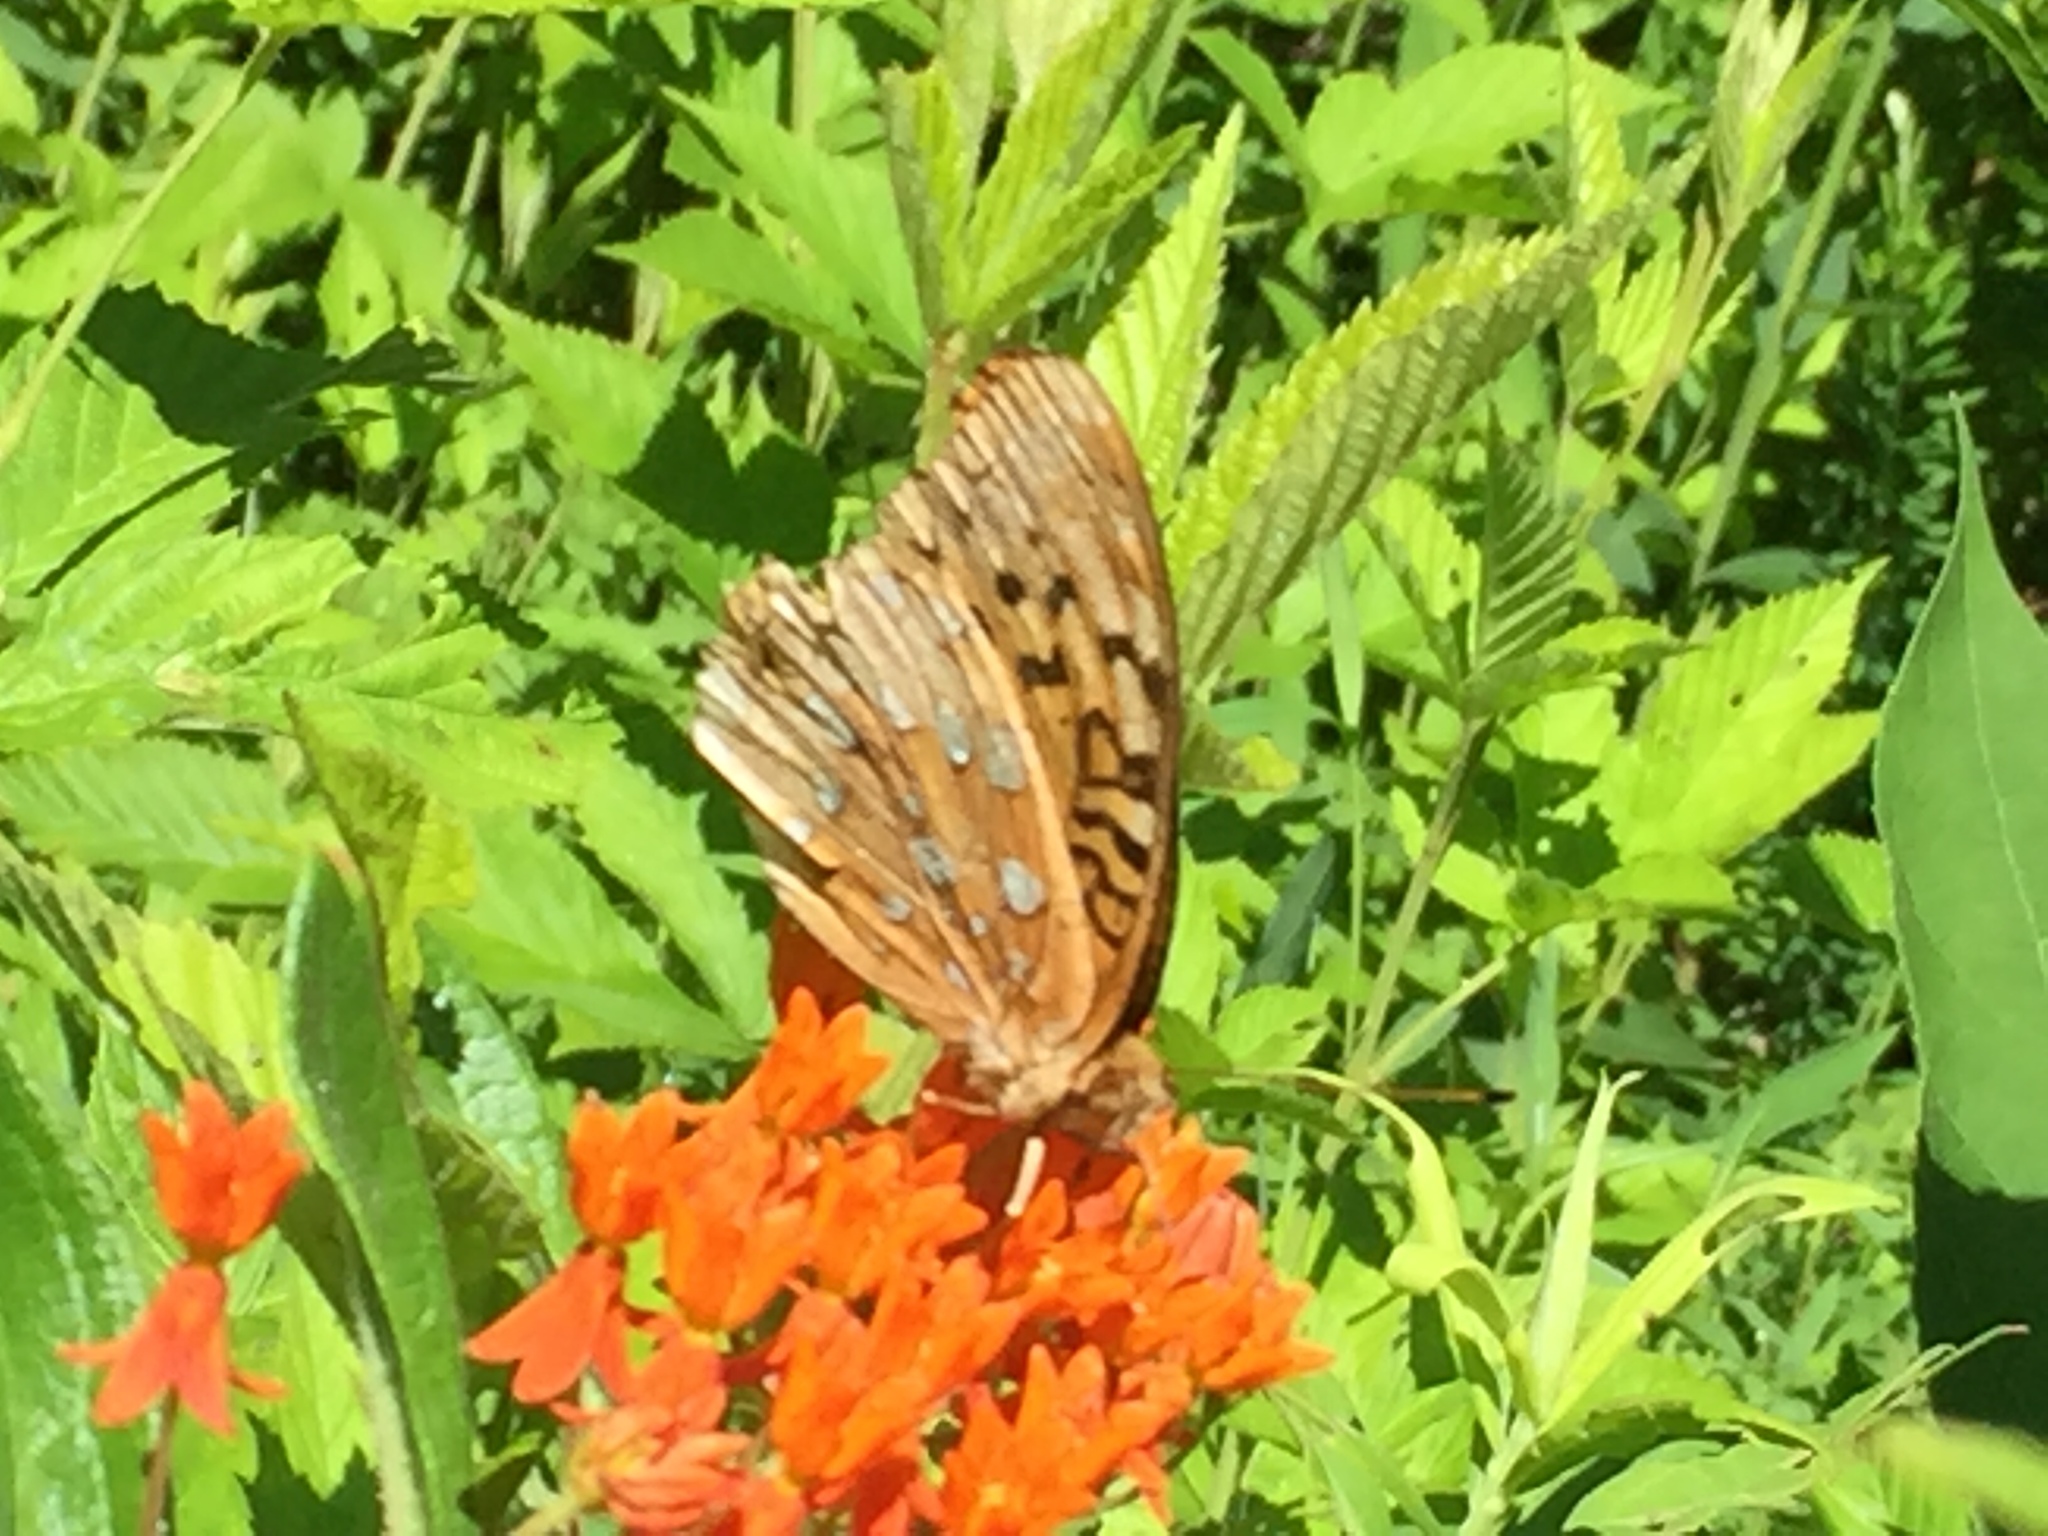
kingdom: Animalia
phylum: Arthropoda
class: Insecta
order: Lepidoptera
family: Nymphalidae
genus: Speyeria
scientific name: Speyeria cybele
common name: Great spangled fritillary
